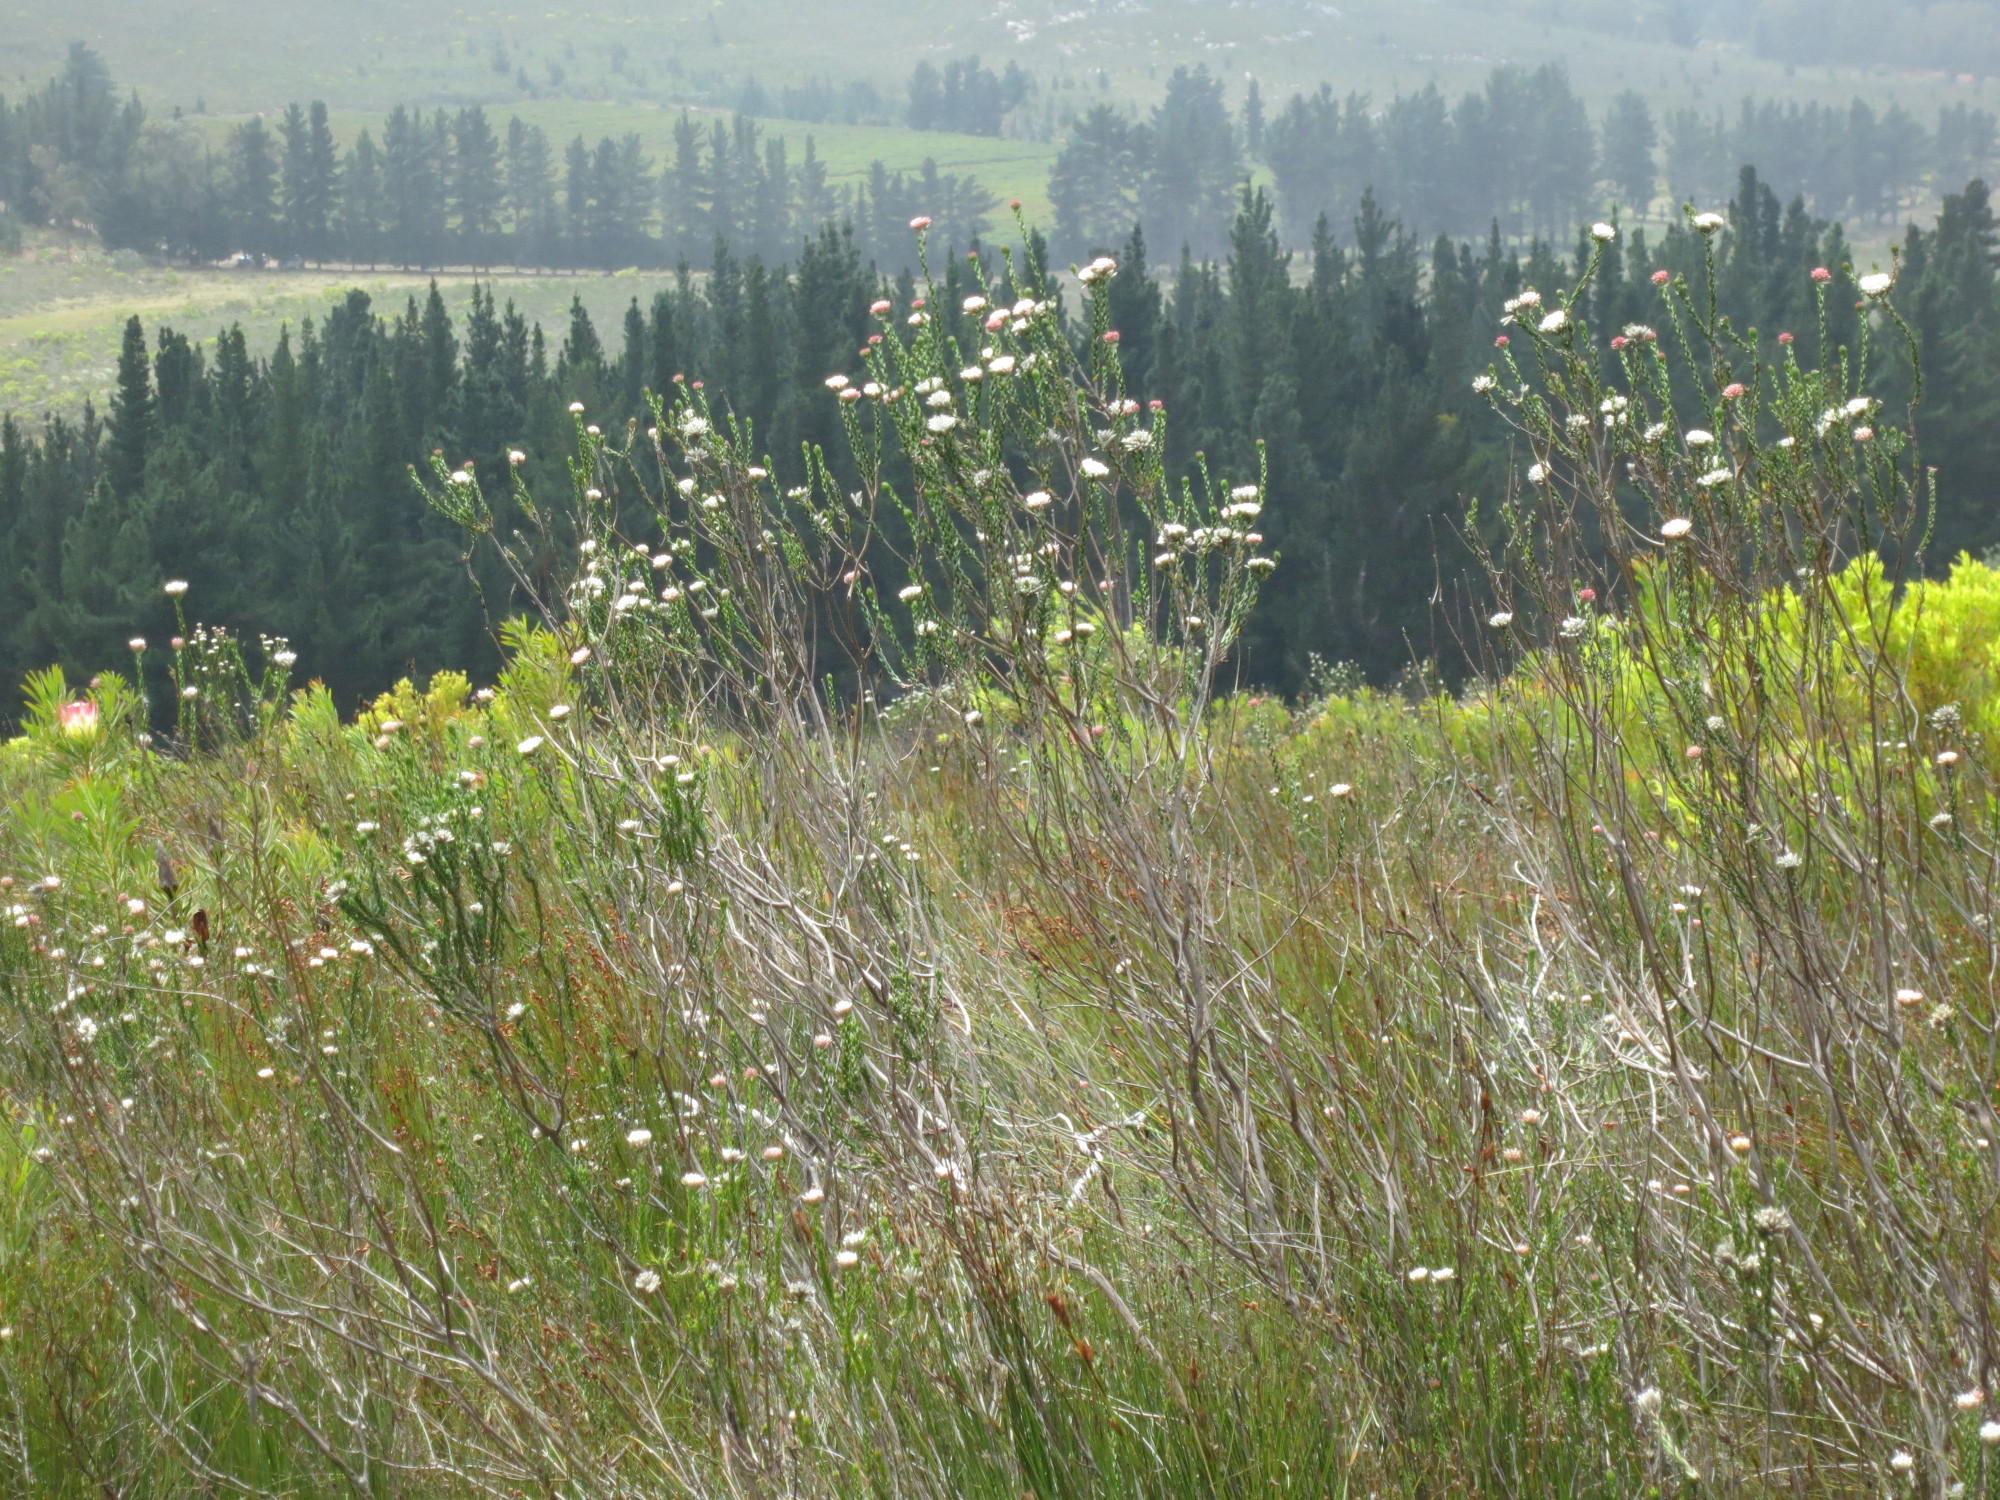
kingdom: Plantae
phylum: Tracheophyta
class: Magnoliopsida
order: Asterales
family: Asteraceae
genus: Metalasia
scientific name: Metalasia pulcherrima
